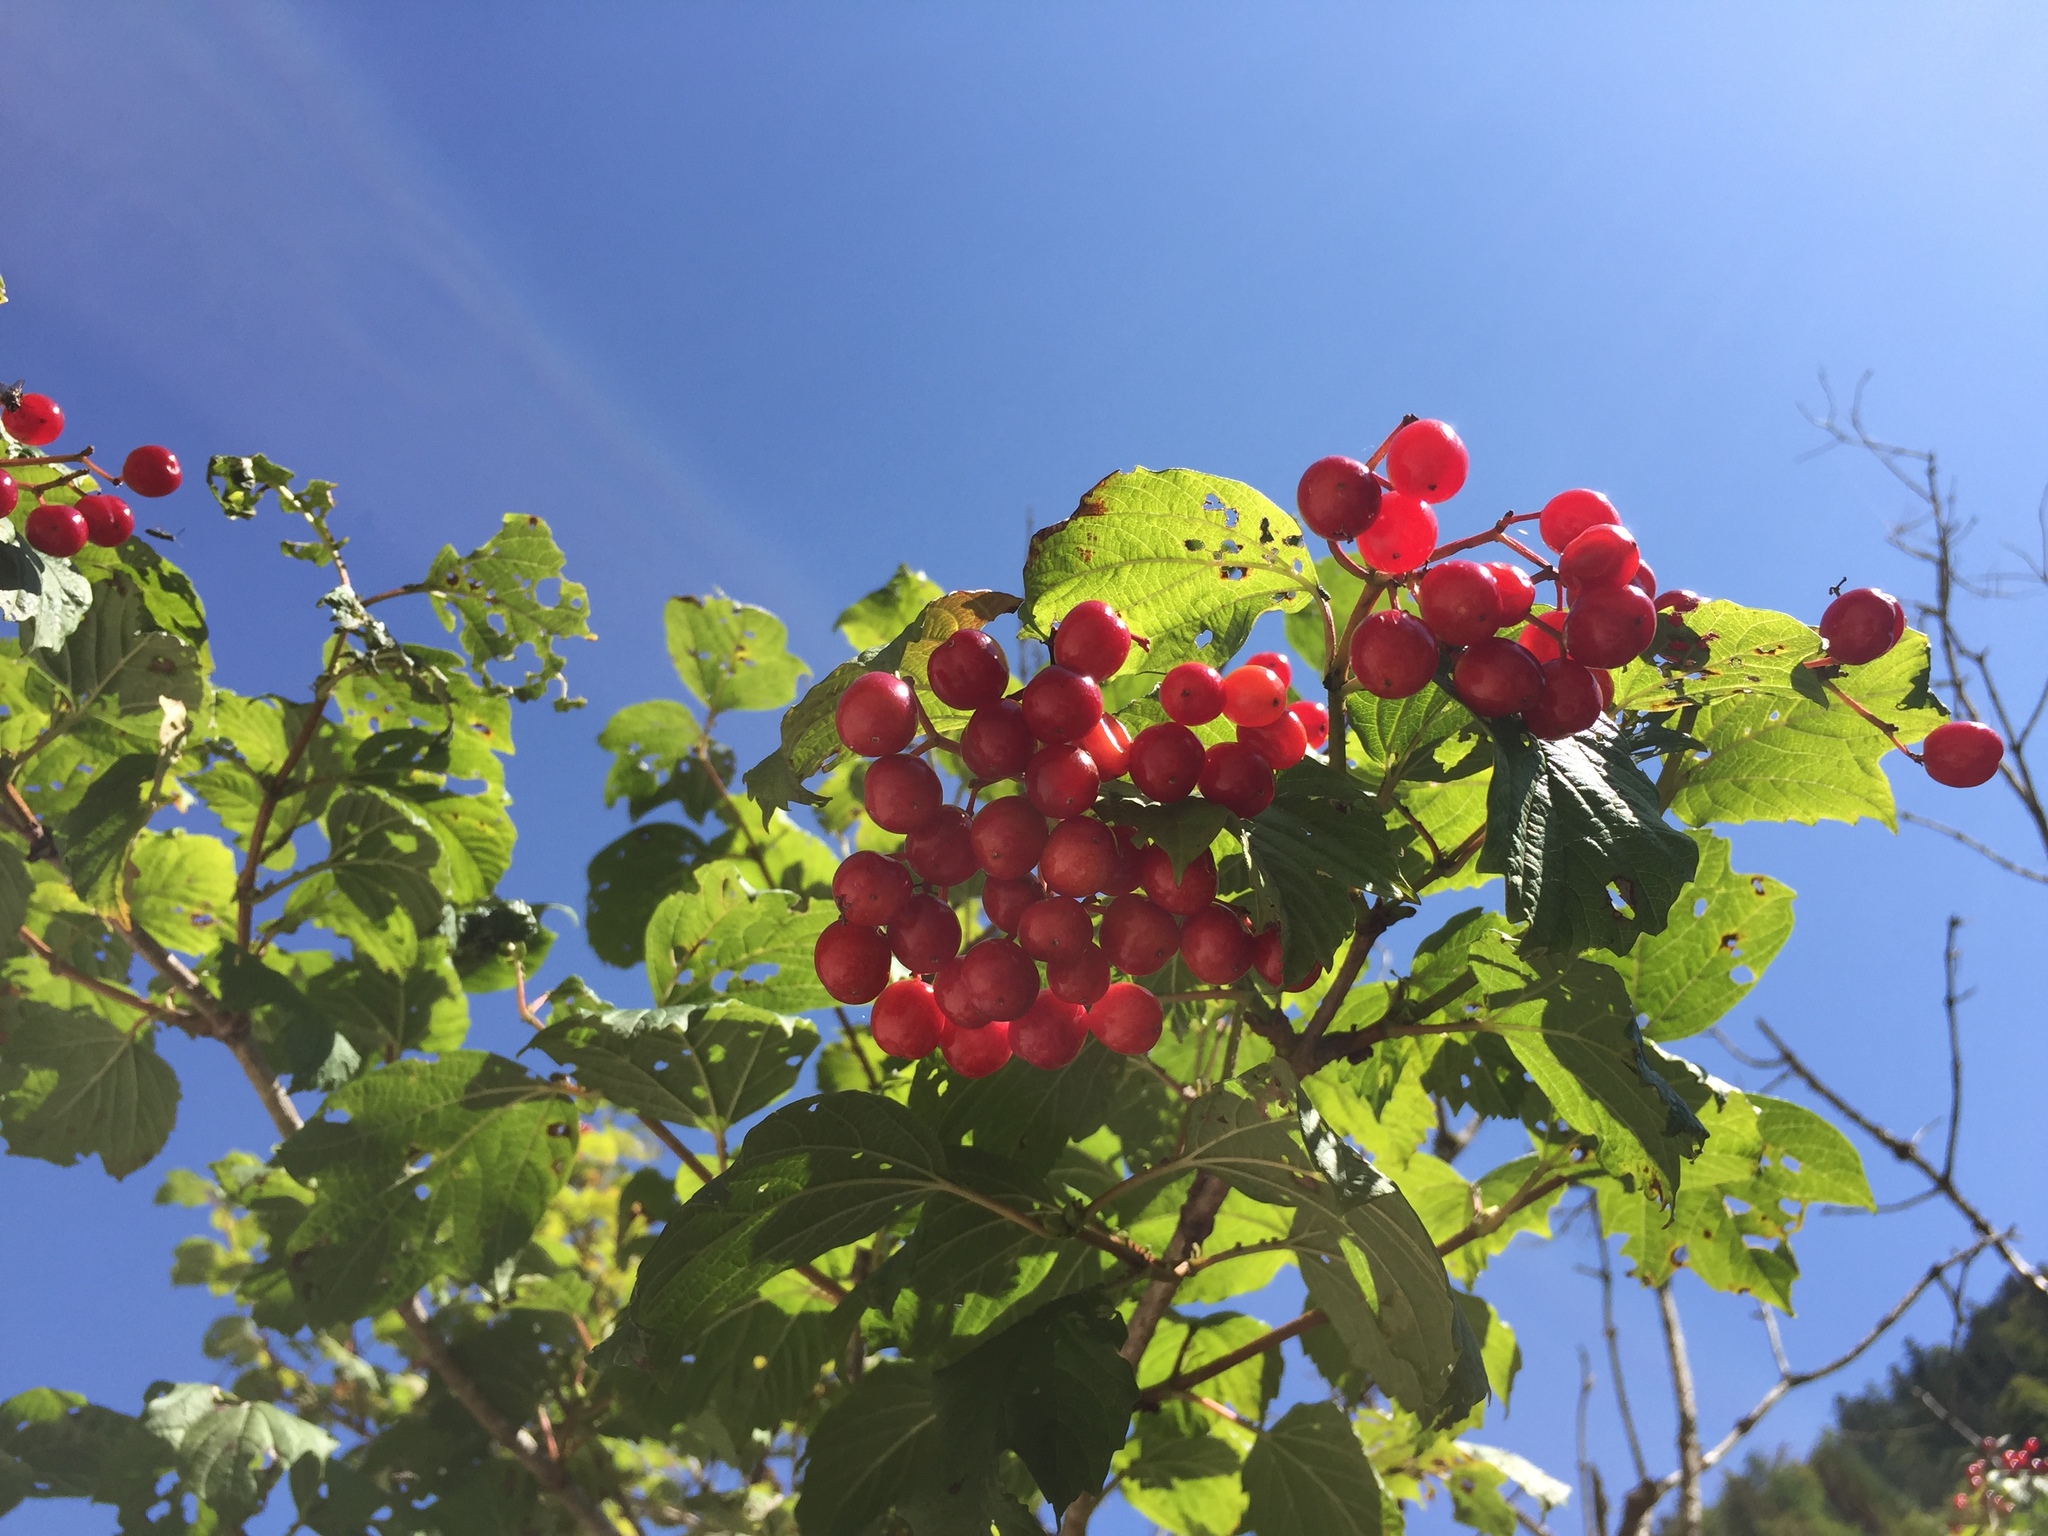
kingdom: Plantae
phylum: Tracheophyta
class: Magnoliopsida
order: Dipsacales
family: Viburnaceae
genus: Viburnum
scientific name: Viburnum opulus
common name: Guelder-rose
